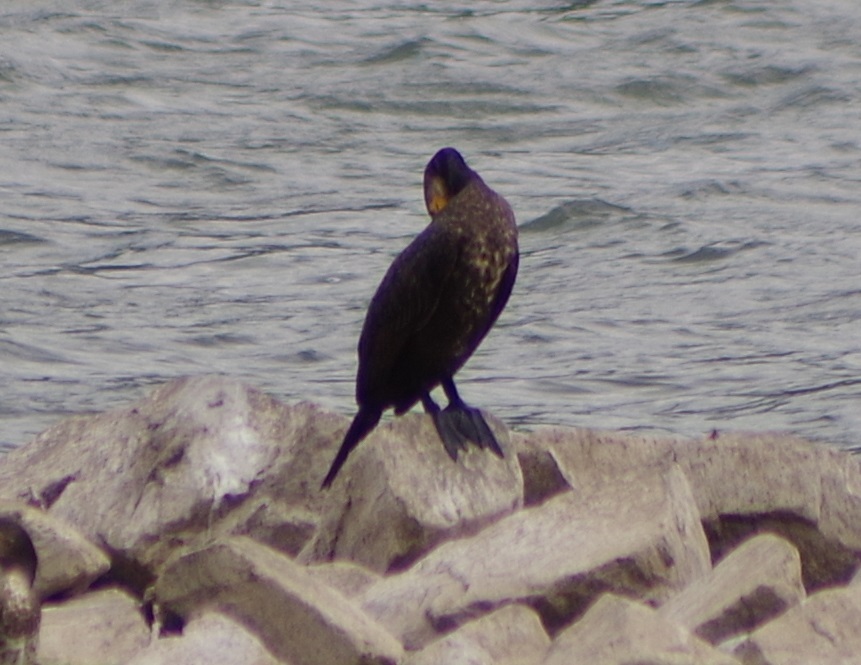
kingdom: Animalia
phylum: Chordata
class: Aves
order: Suliformes
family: Phalacrocoracidae
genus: Phalacrocorax
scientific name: Phalacrocorax carbo
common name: Great cormorant
